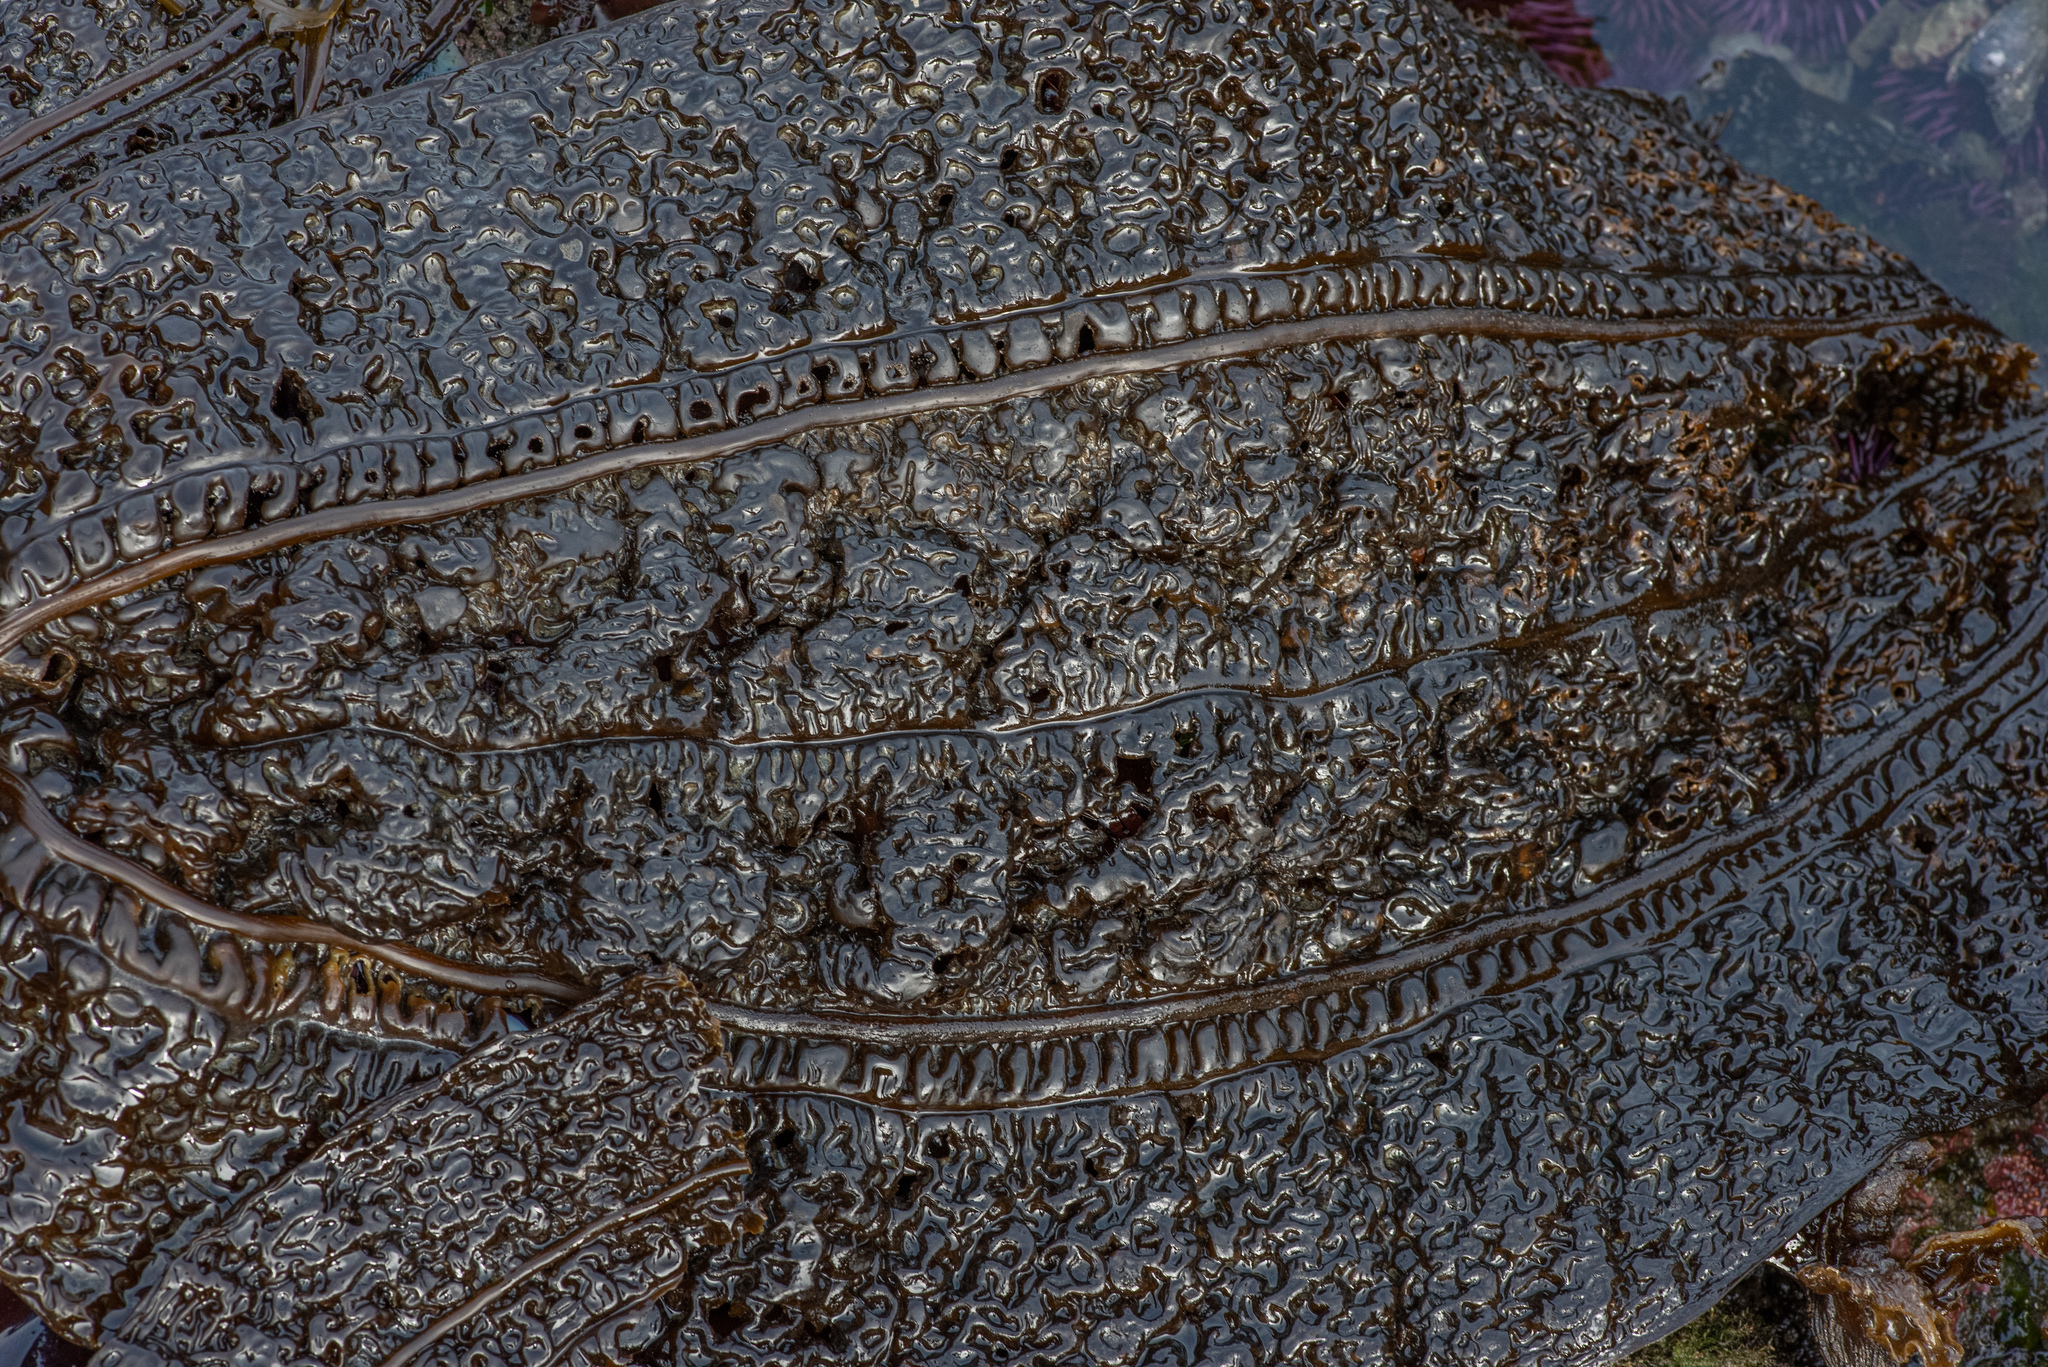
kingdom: Chromista
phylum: Ochrophyta
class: Phaeophyceae
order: Laminariales
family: Costariaceae
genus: Costaria
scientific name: Costaria costata
